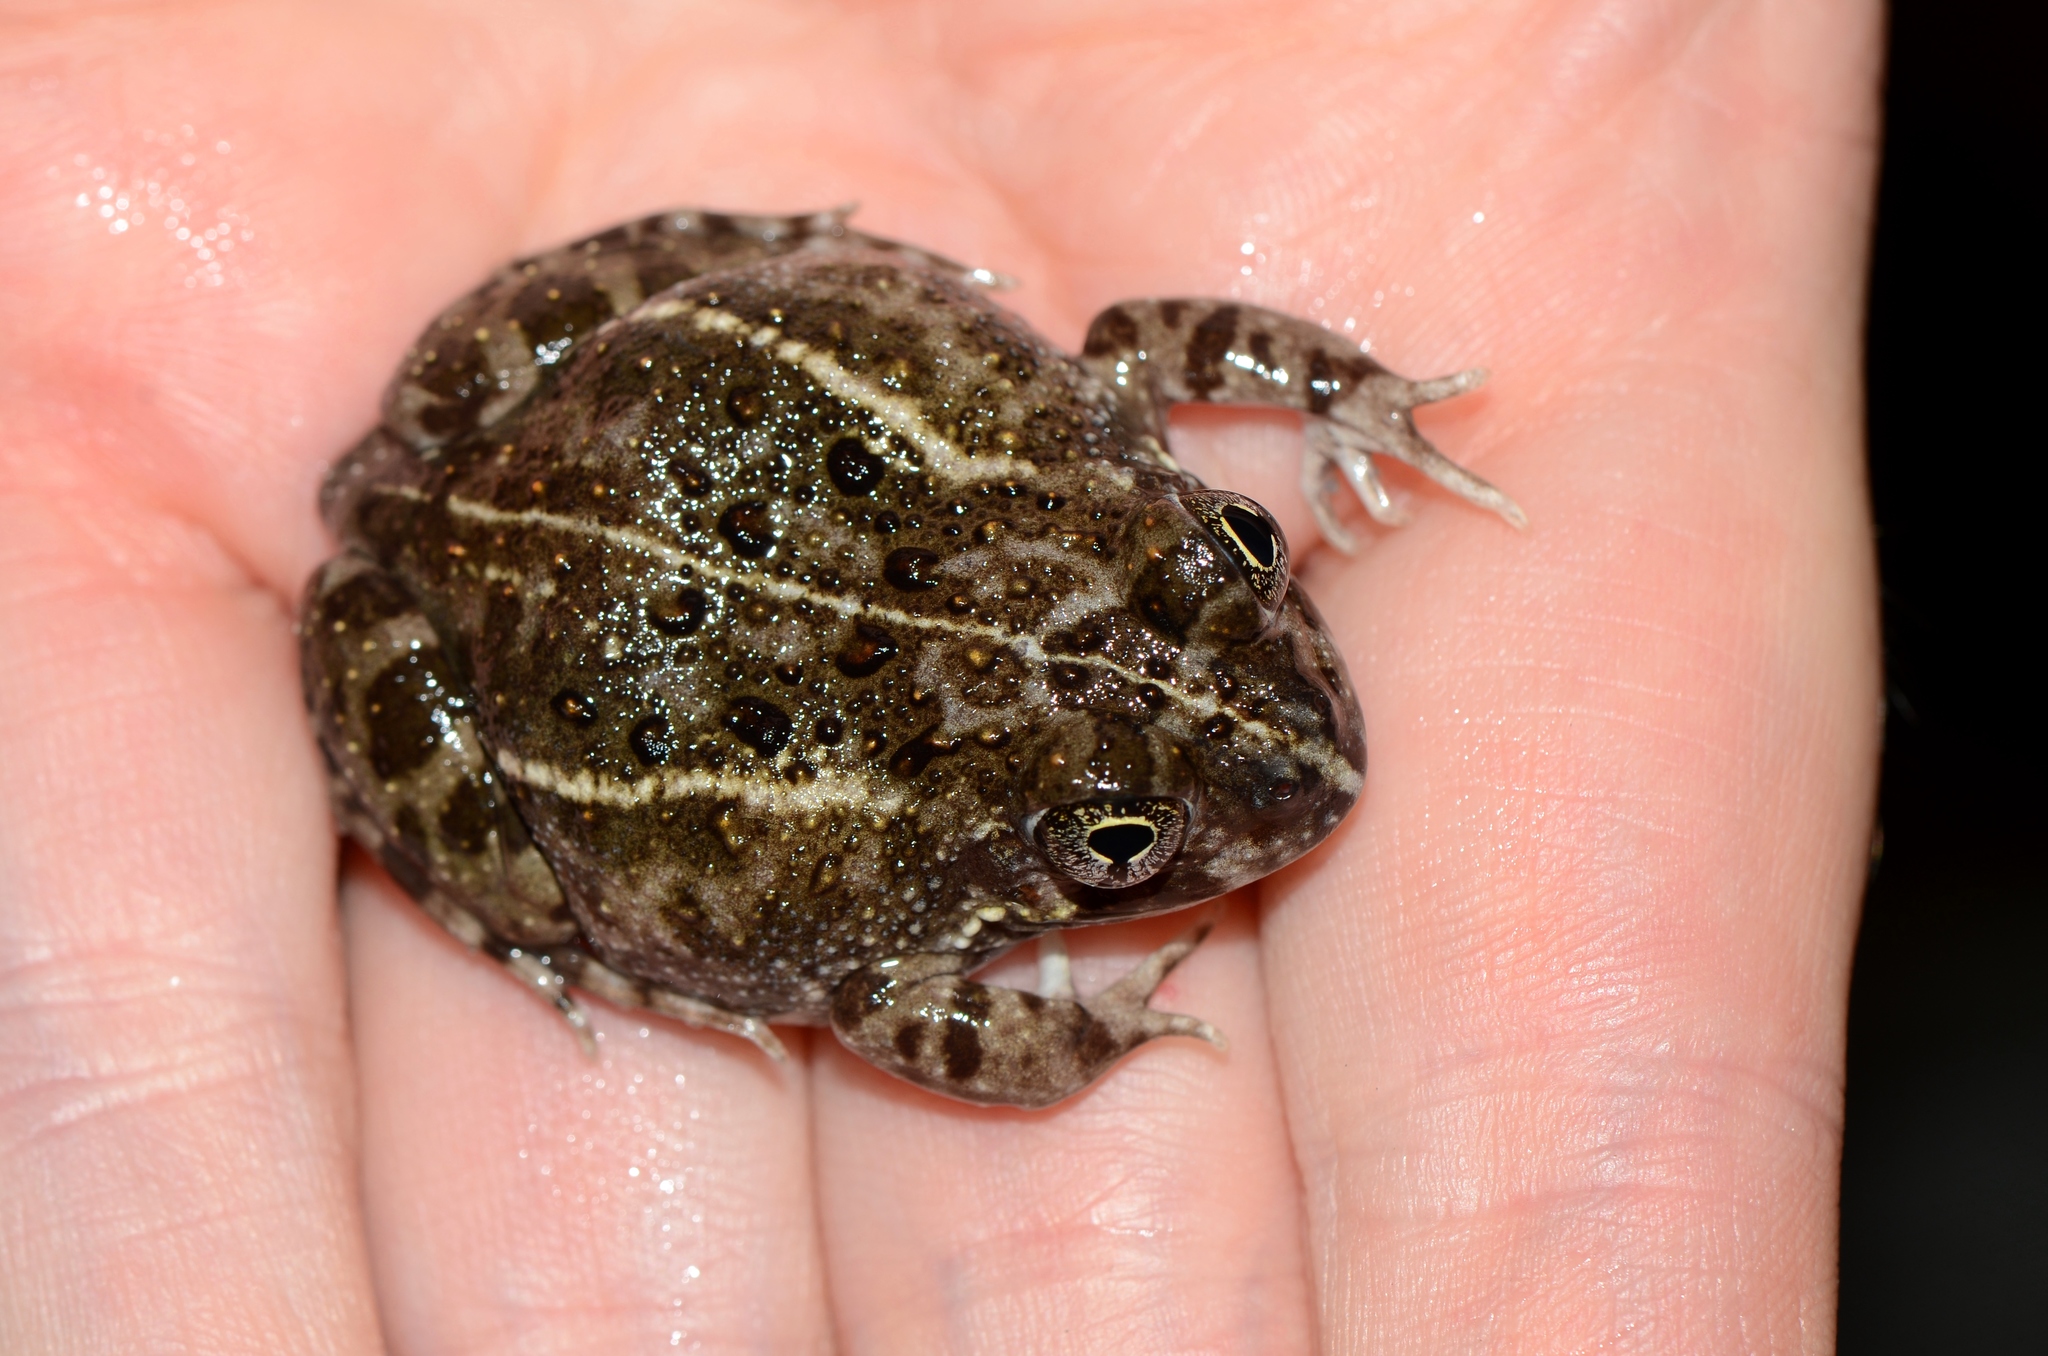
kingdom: Animalia
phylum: Chordata
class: Amphibia
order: Anura
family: Pyxicephalidae
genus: Tomopterna
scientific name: Tomopterna delalandii
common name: Delalande's burrowing bullfrog
